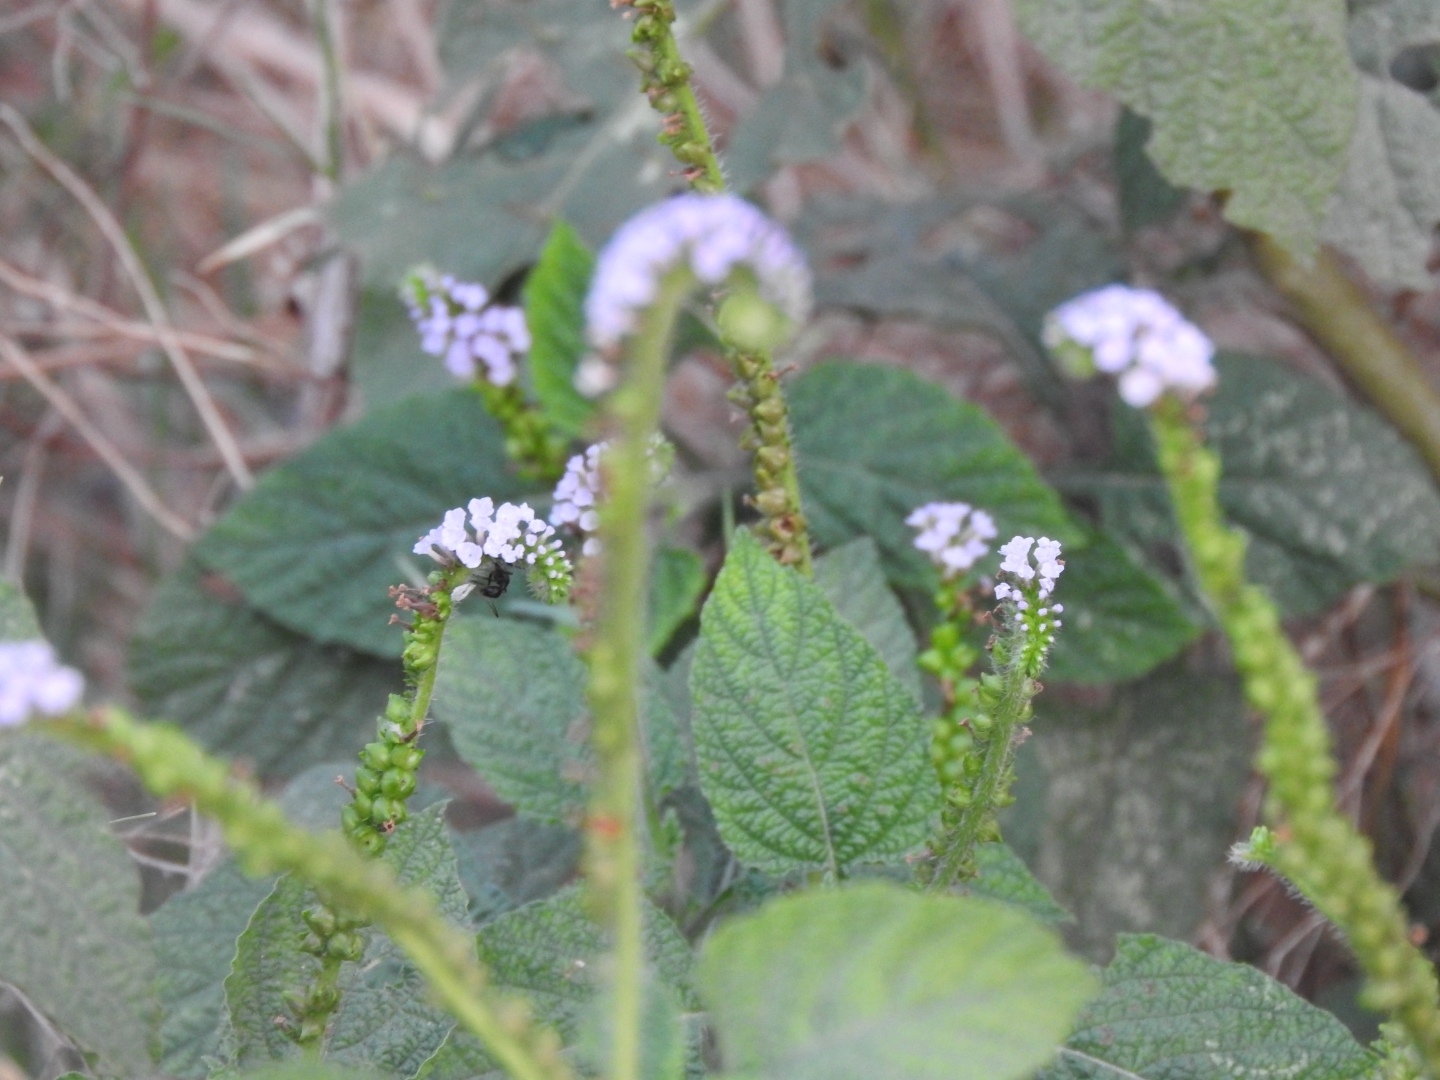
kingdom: Plantae
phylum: Tracheophyta
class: Magnoliopsida
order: Boraginales
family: Heliotropiaceae
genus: Heliotropium
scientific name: Heliotropium indicum
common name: Indian heliotrope
